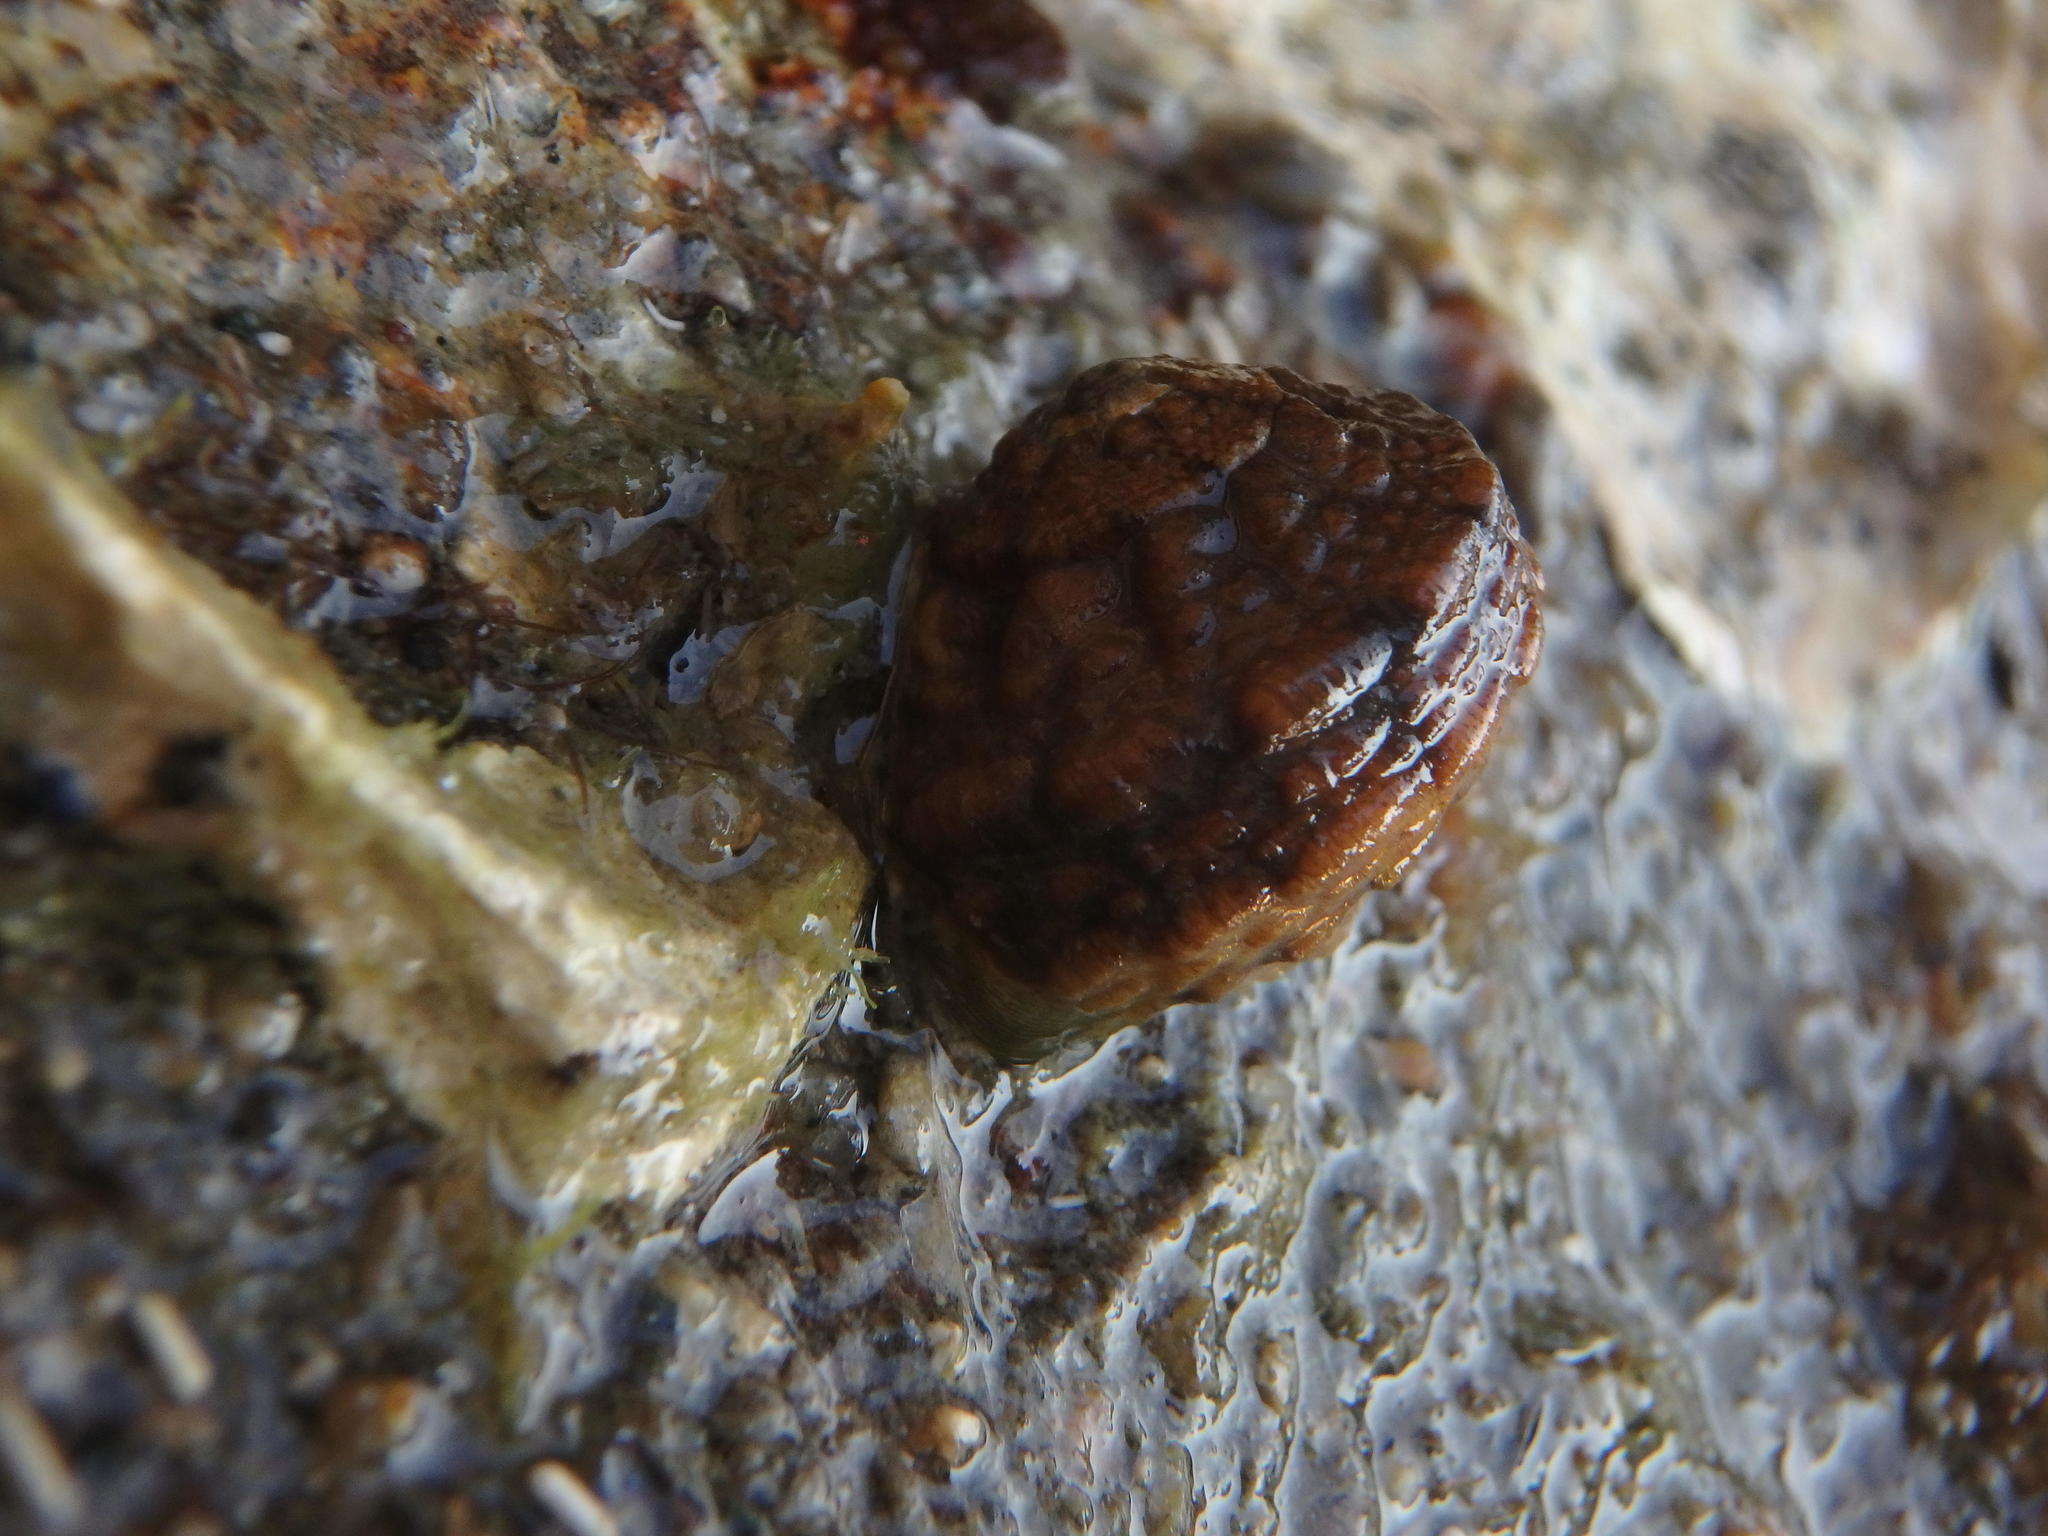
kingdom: Animalia
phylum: Mollusca
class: Gastropoda
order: Trochida
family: Turbinidae
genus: Lunella
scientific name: Lunella correensis
